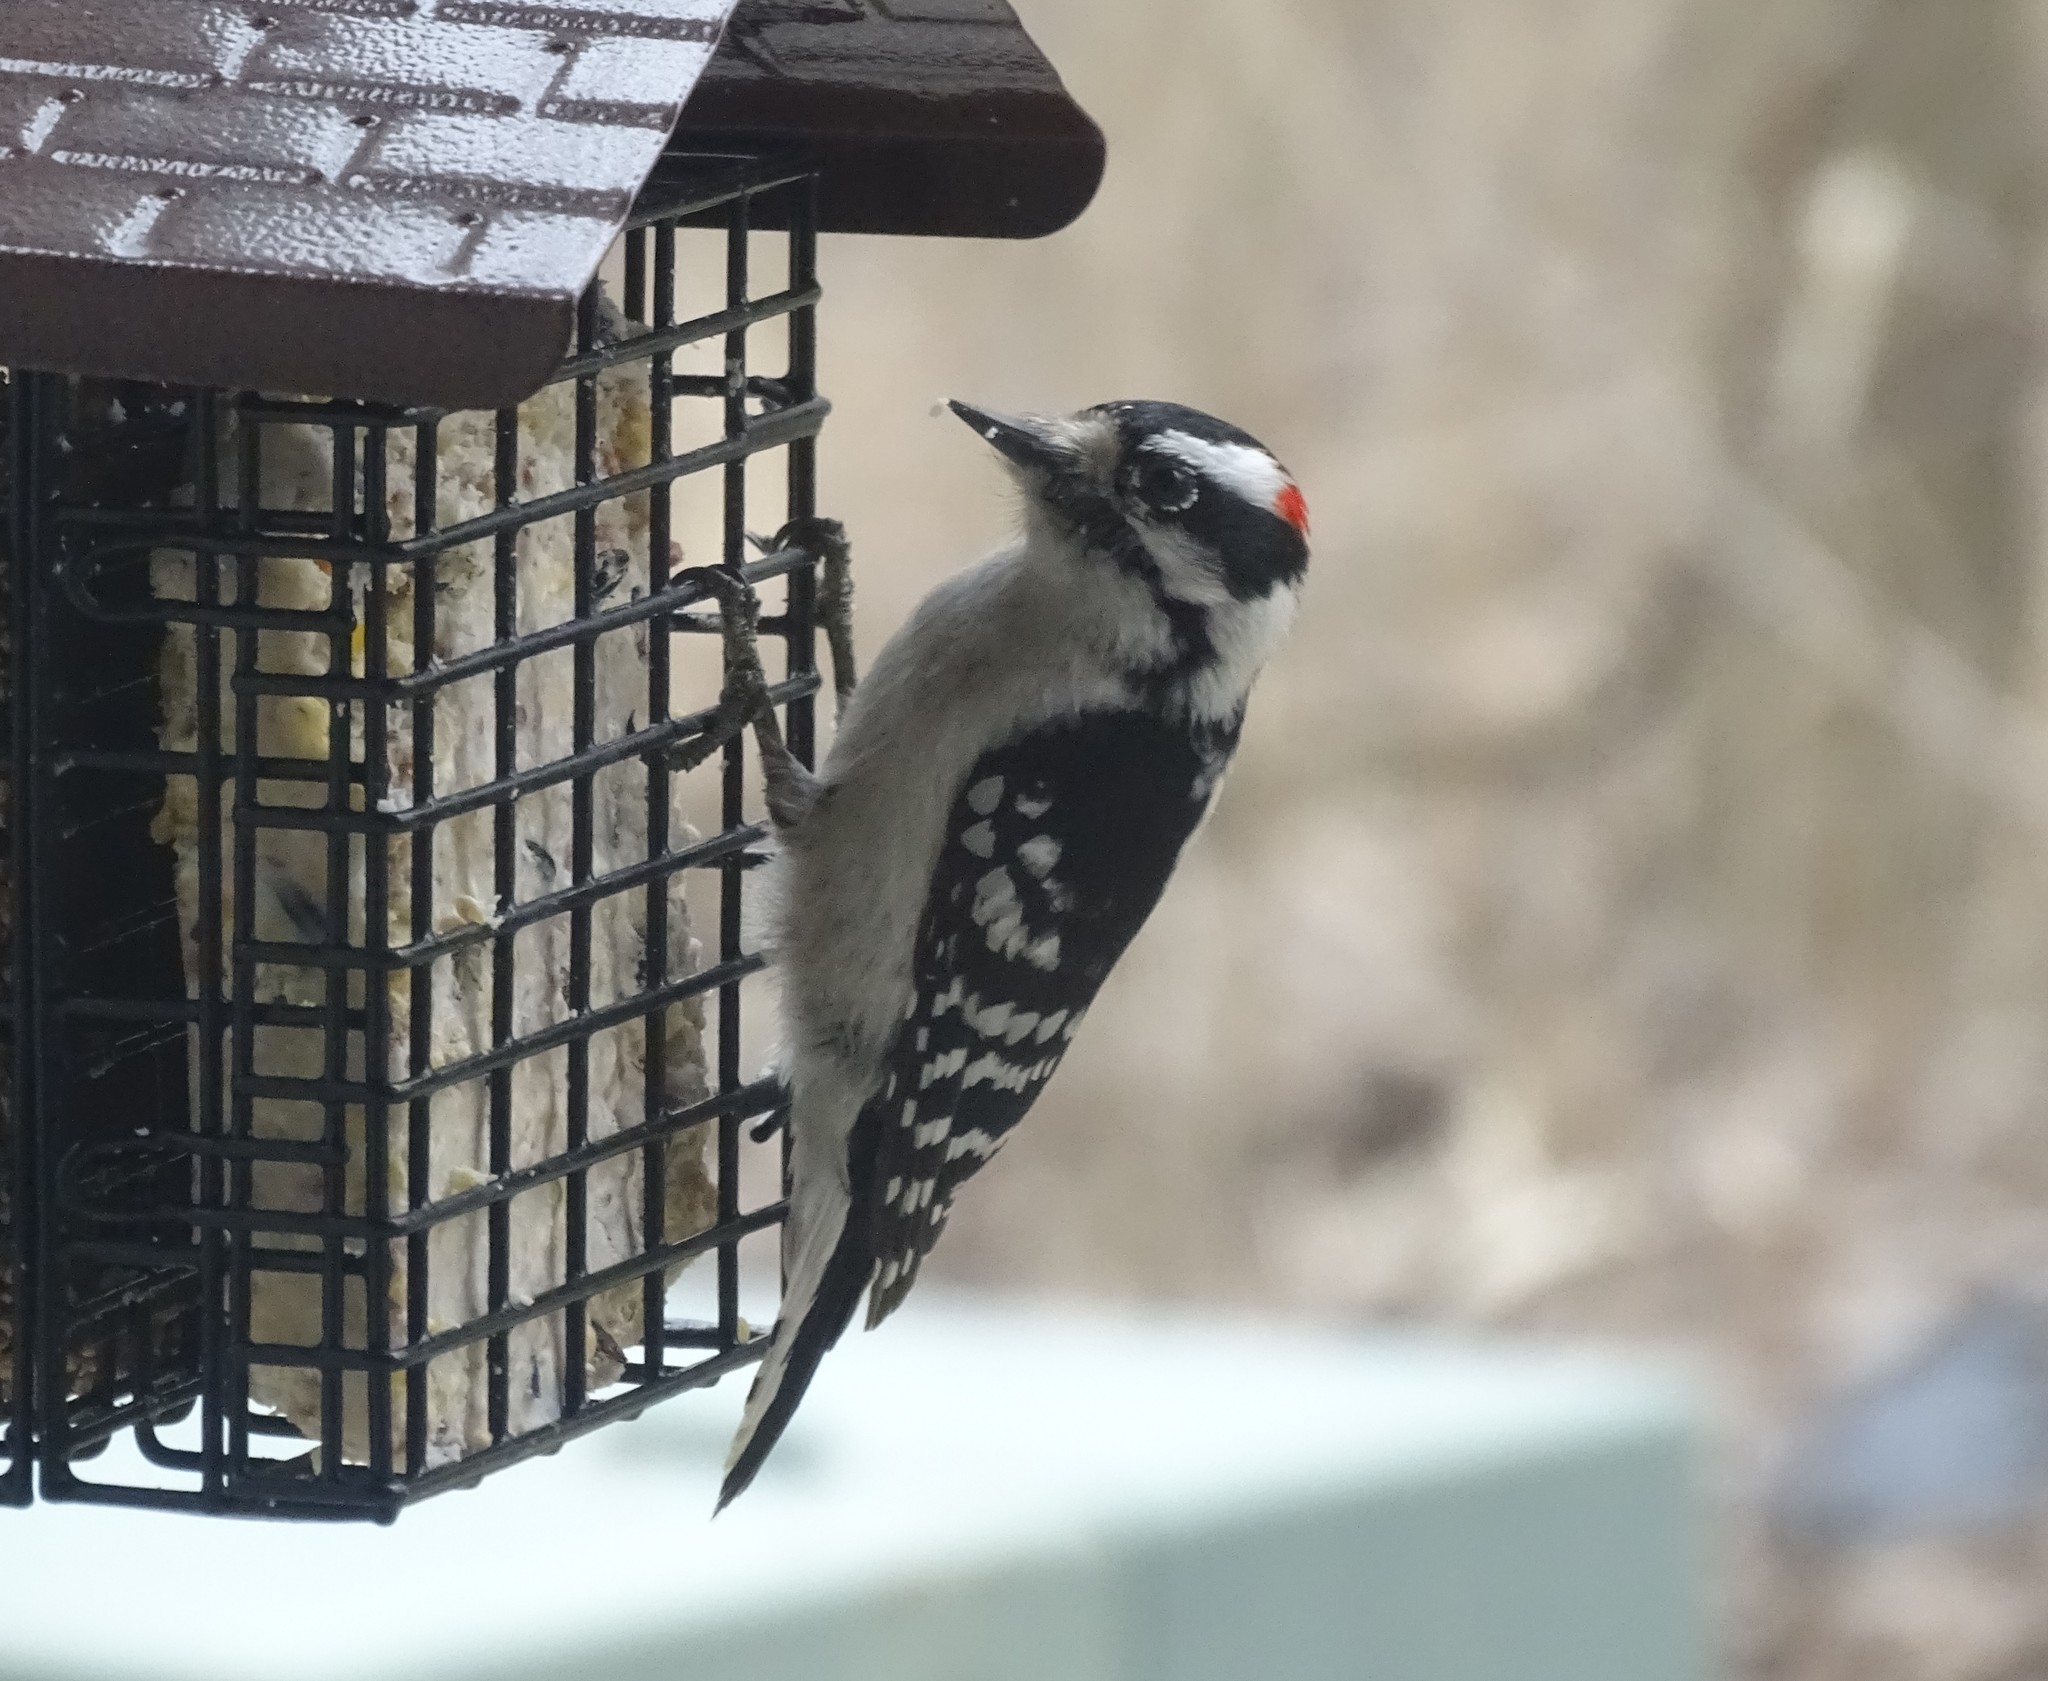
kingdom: Animalia
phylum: Chordata
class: Aves
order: Piciformes
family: Picidae
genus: Dryobates
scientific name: Dryobates pubescens
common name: Downy woodpecker
